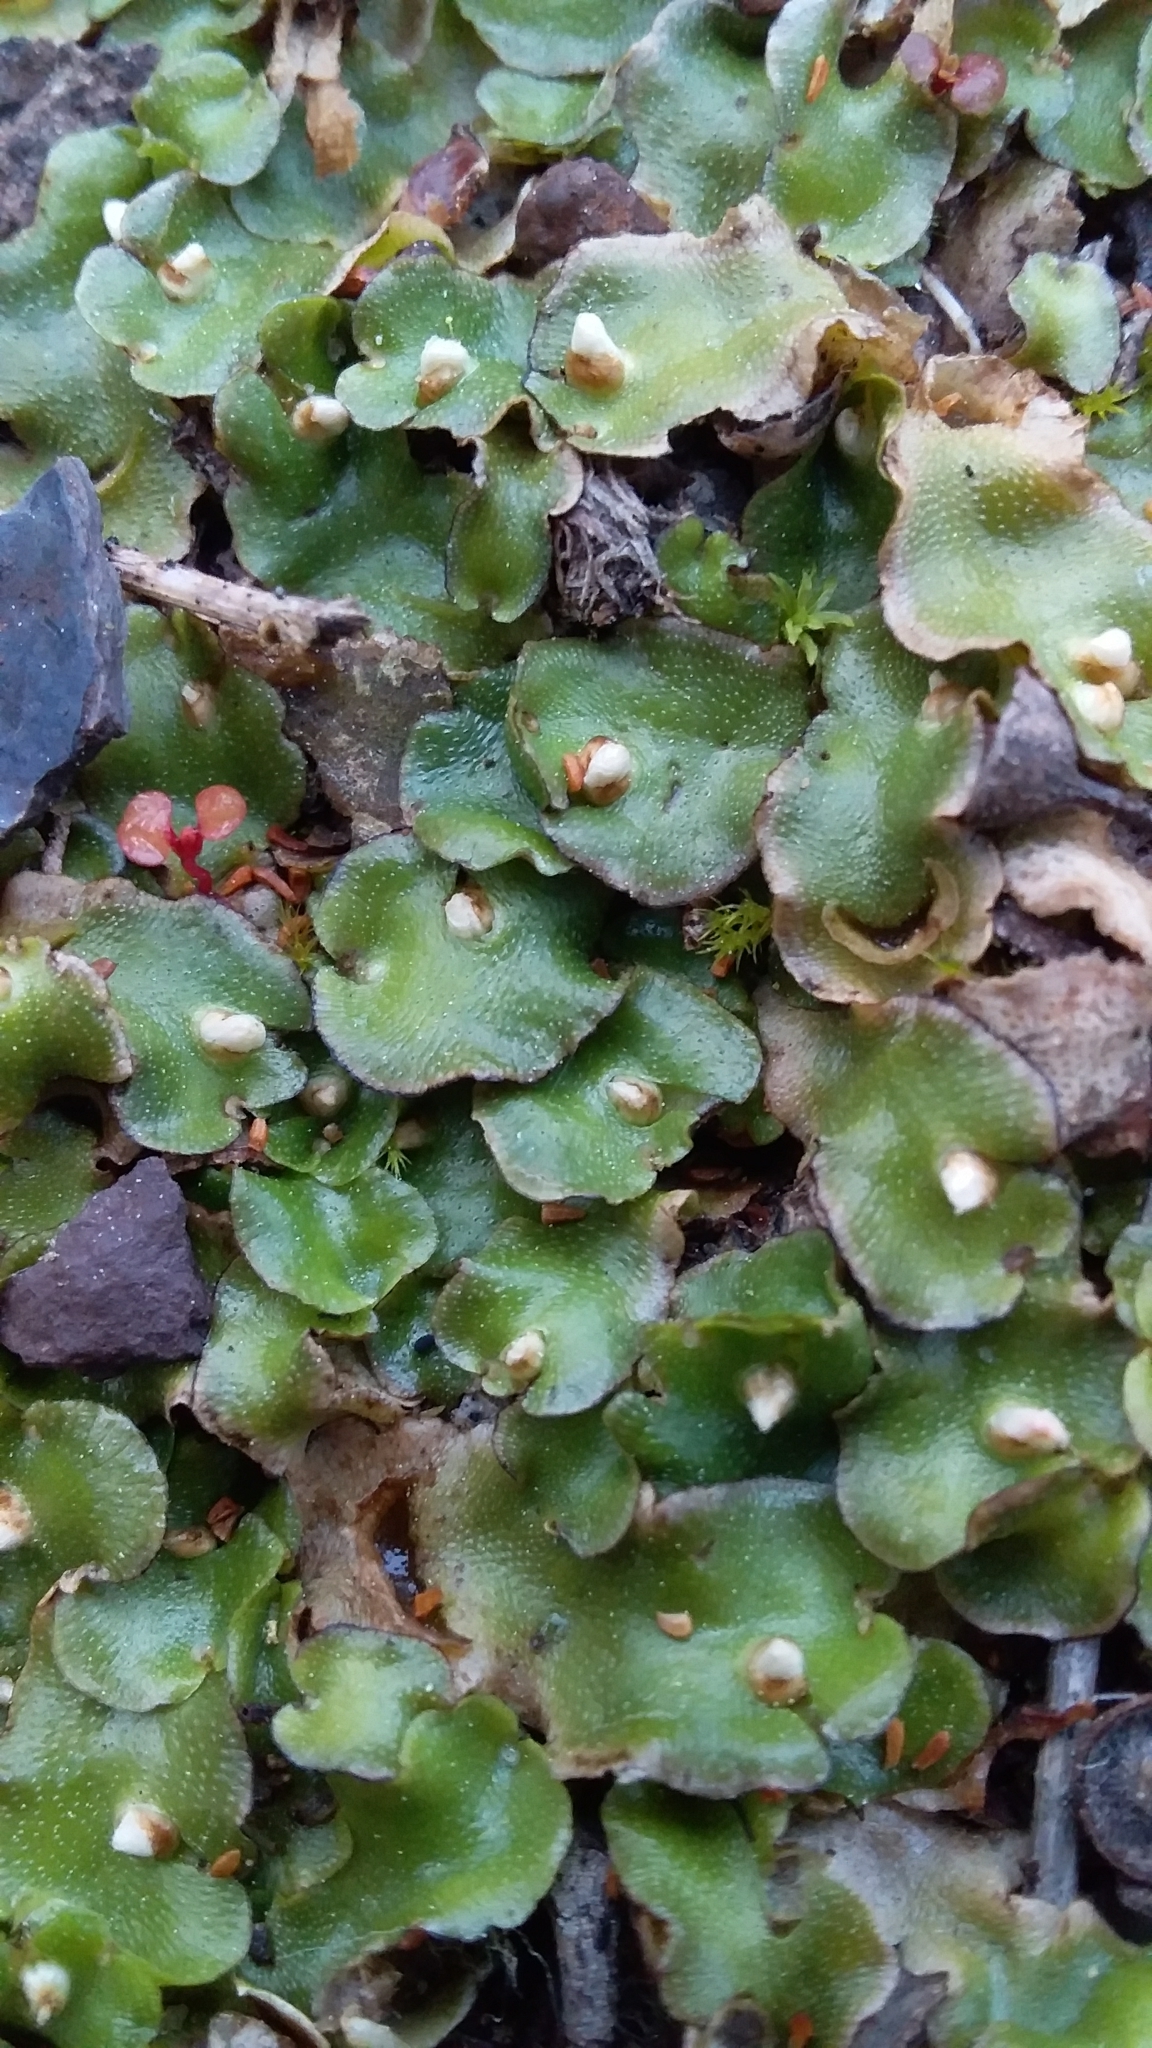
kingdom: Plantae
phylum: Marchantiophyta
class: Marchantiopsida
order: Lunulariales
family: Lunulariaceae
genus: Lunularia
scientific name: Lunularia cruciata
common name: Crescent-cup liverwort
